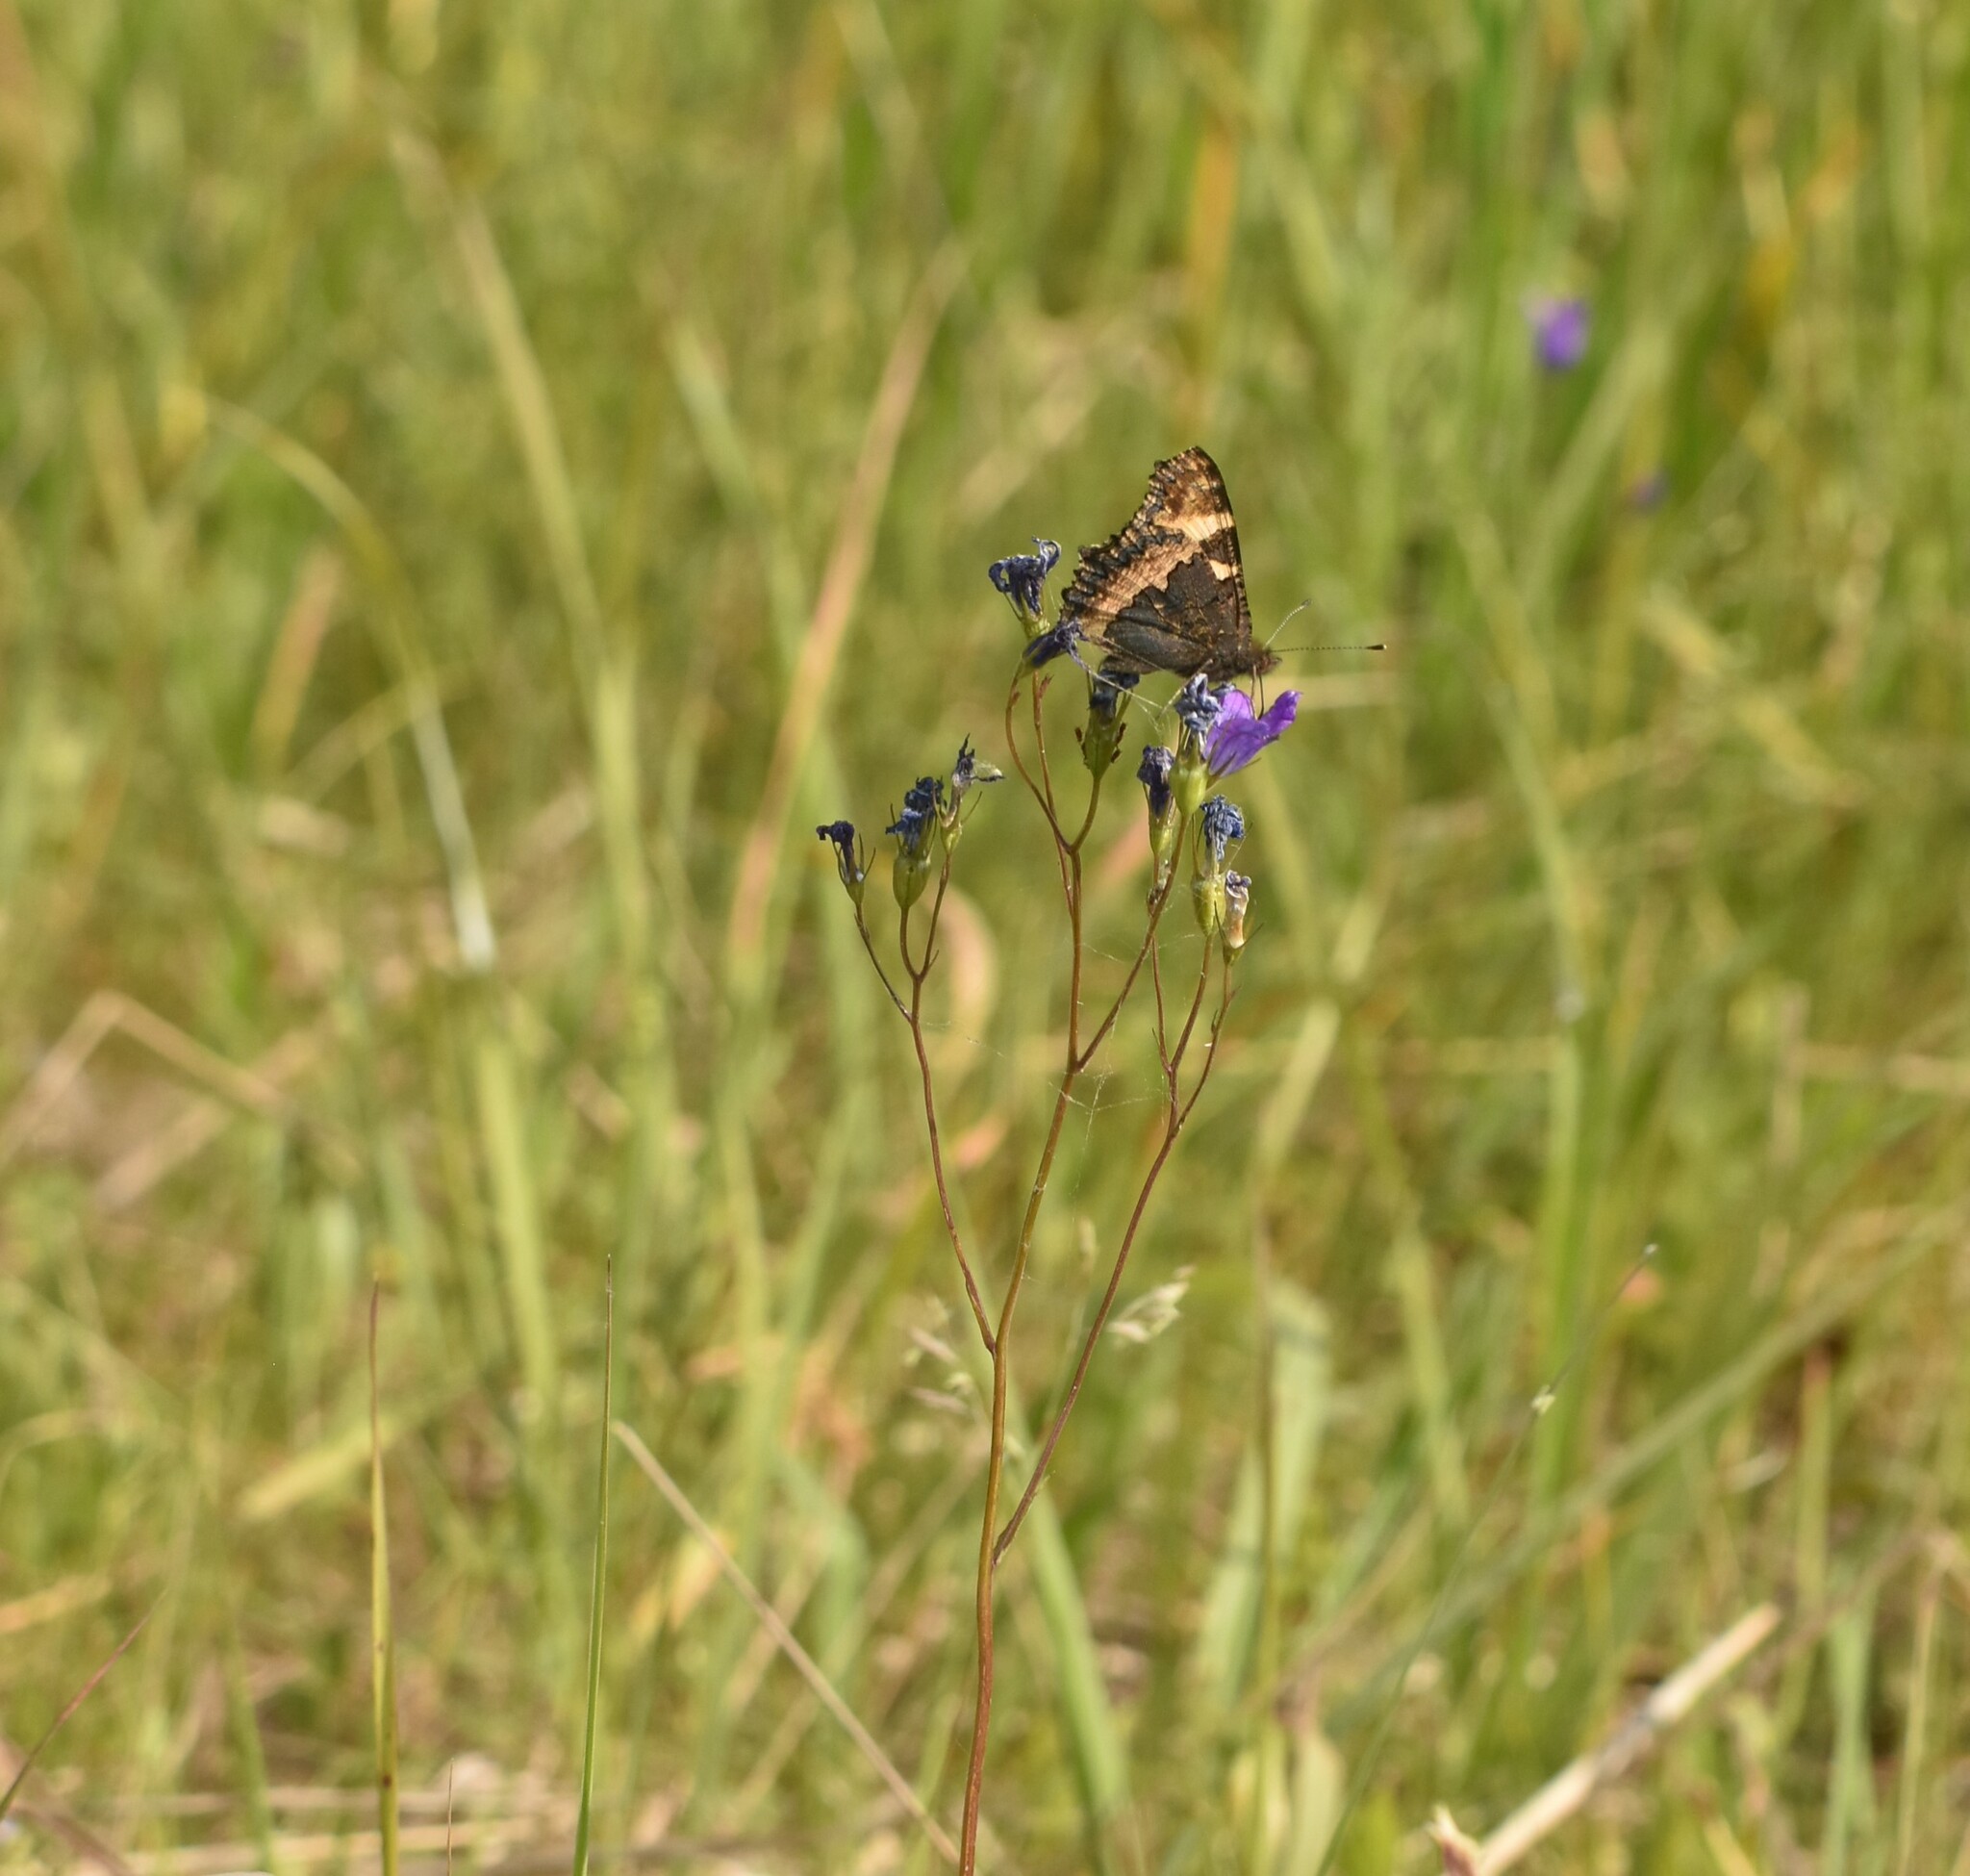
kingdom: Animalia
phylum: Arthropoda
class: Insecta
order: Lepidoptera
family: Nymphalidae
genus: Aglais
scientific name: Aglais urticae
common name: Small tortoiseshell
